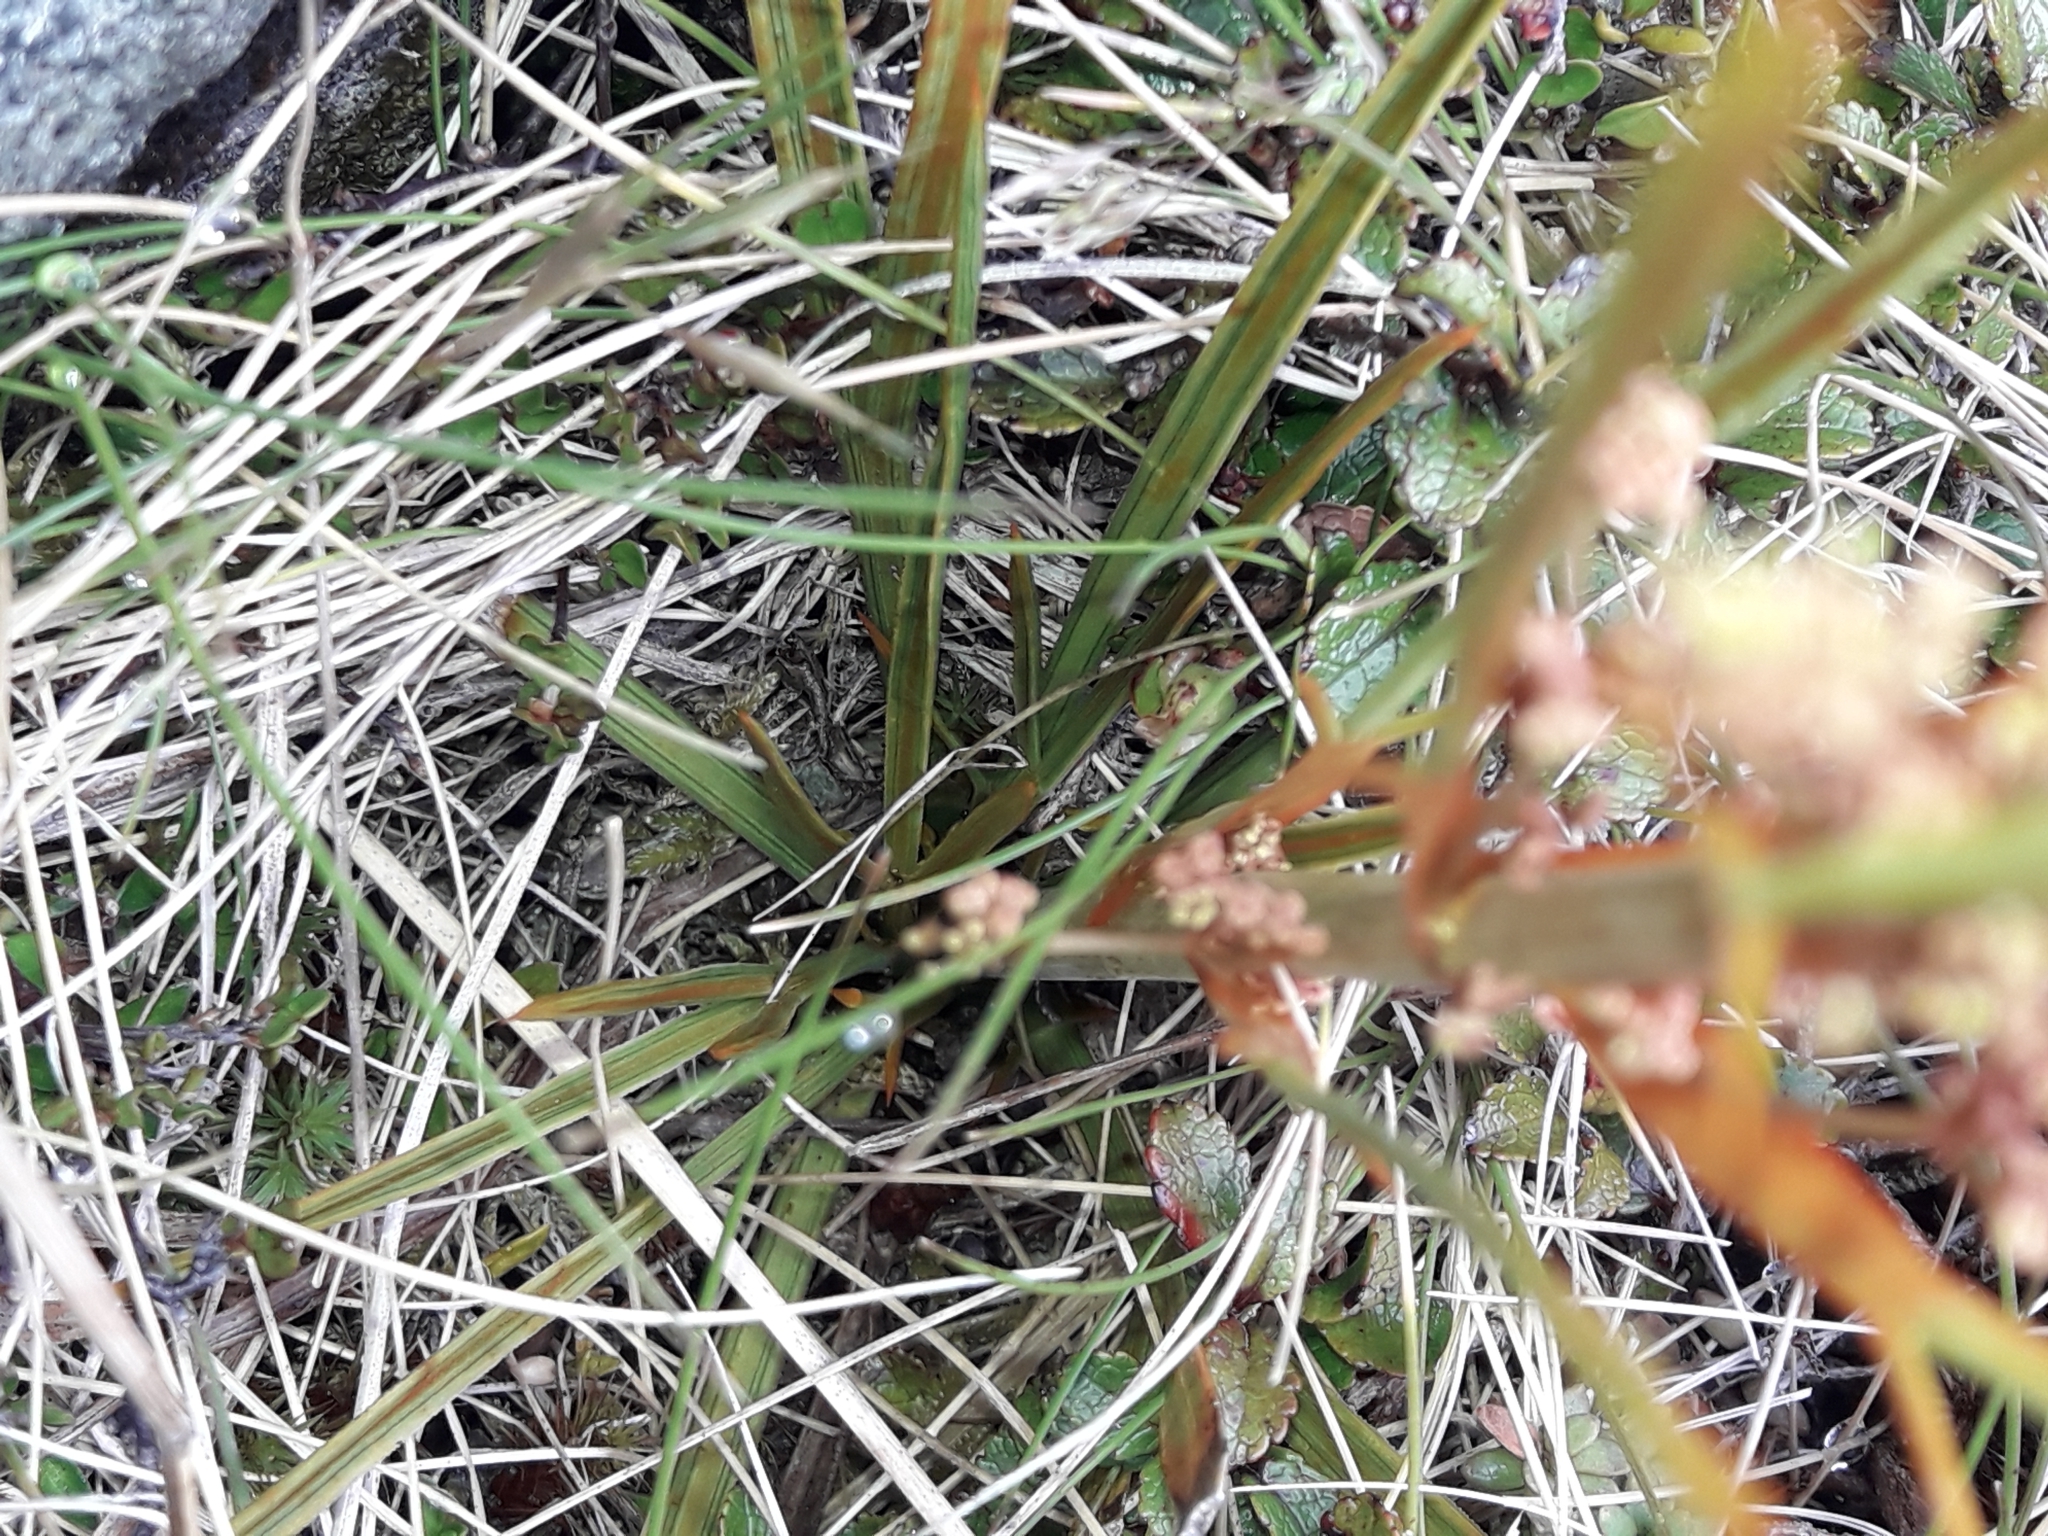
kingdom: Plantae
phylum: Tracheophyta
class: Magnoliopsida
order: Apiales
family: Apiaceae
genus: Aciphylla
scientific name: Aciphylla crenulata
